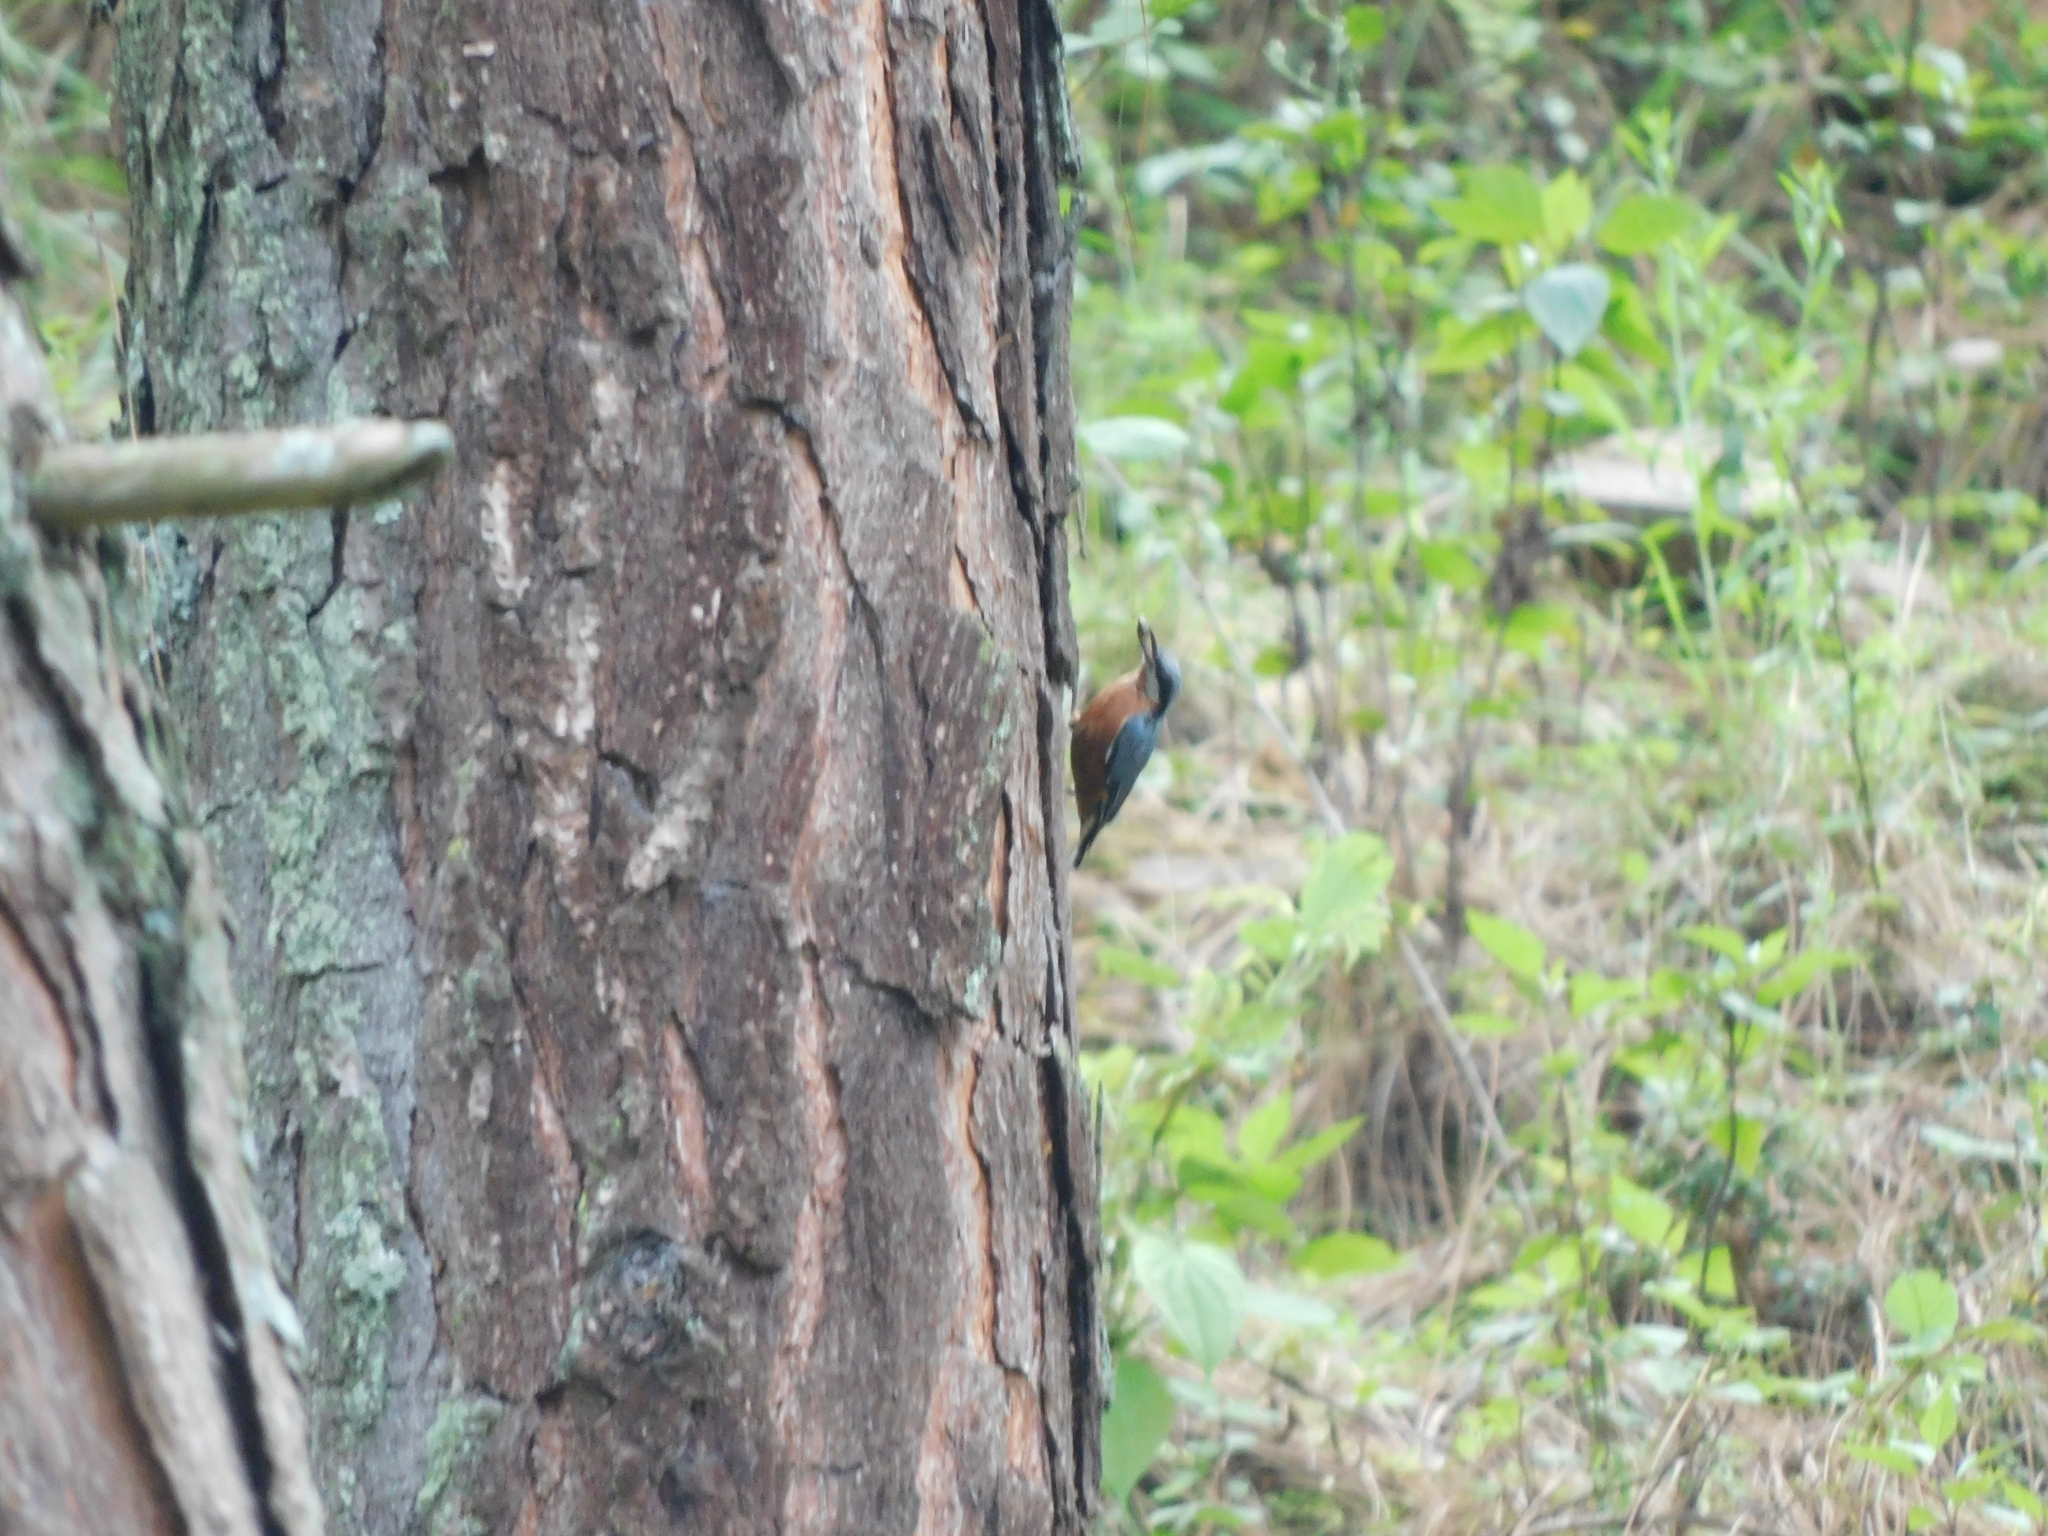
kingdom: Animalia
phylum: Chordata
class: Aves
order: Passeriformes
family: Sittidae
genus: Sitta
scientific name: Sitta cinnamoventris
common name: Chestnut-bellied nuthatch
